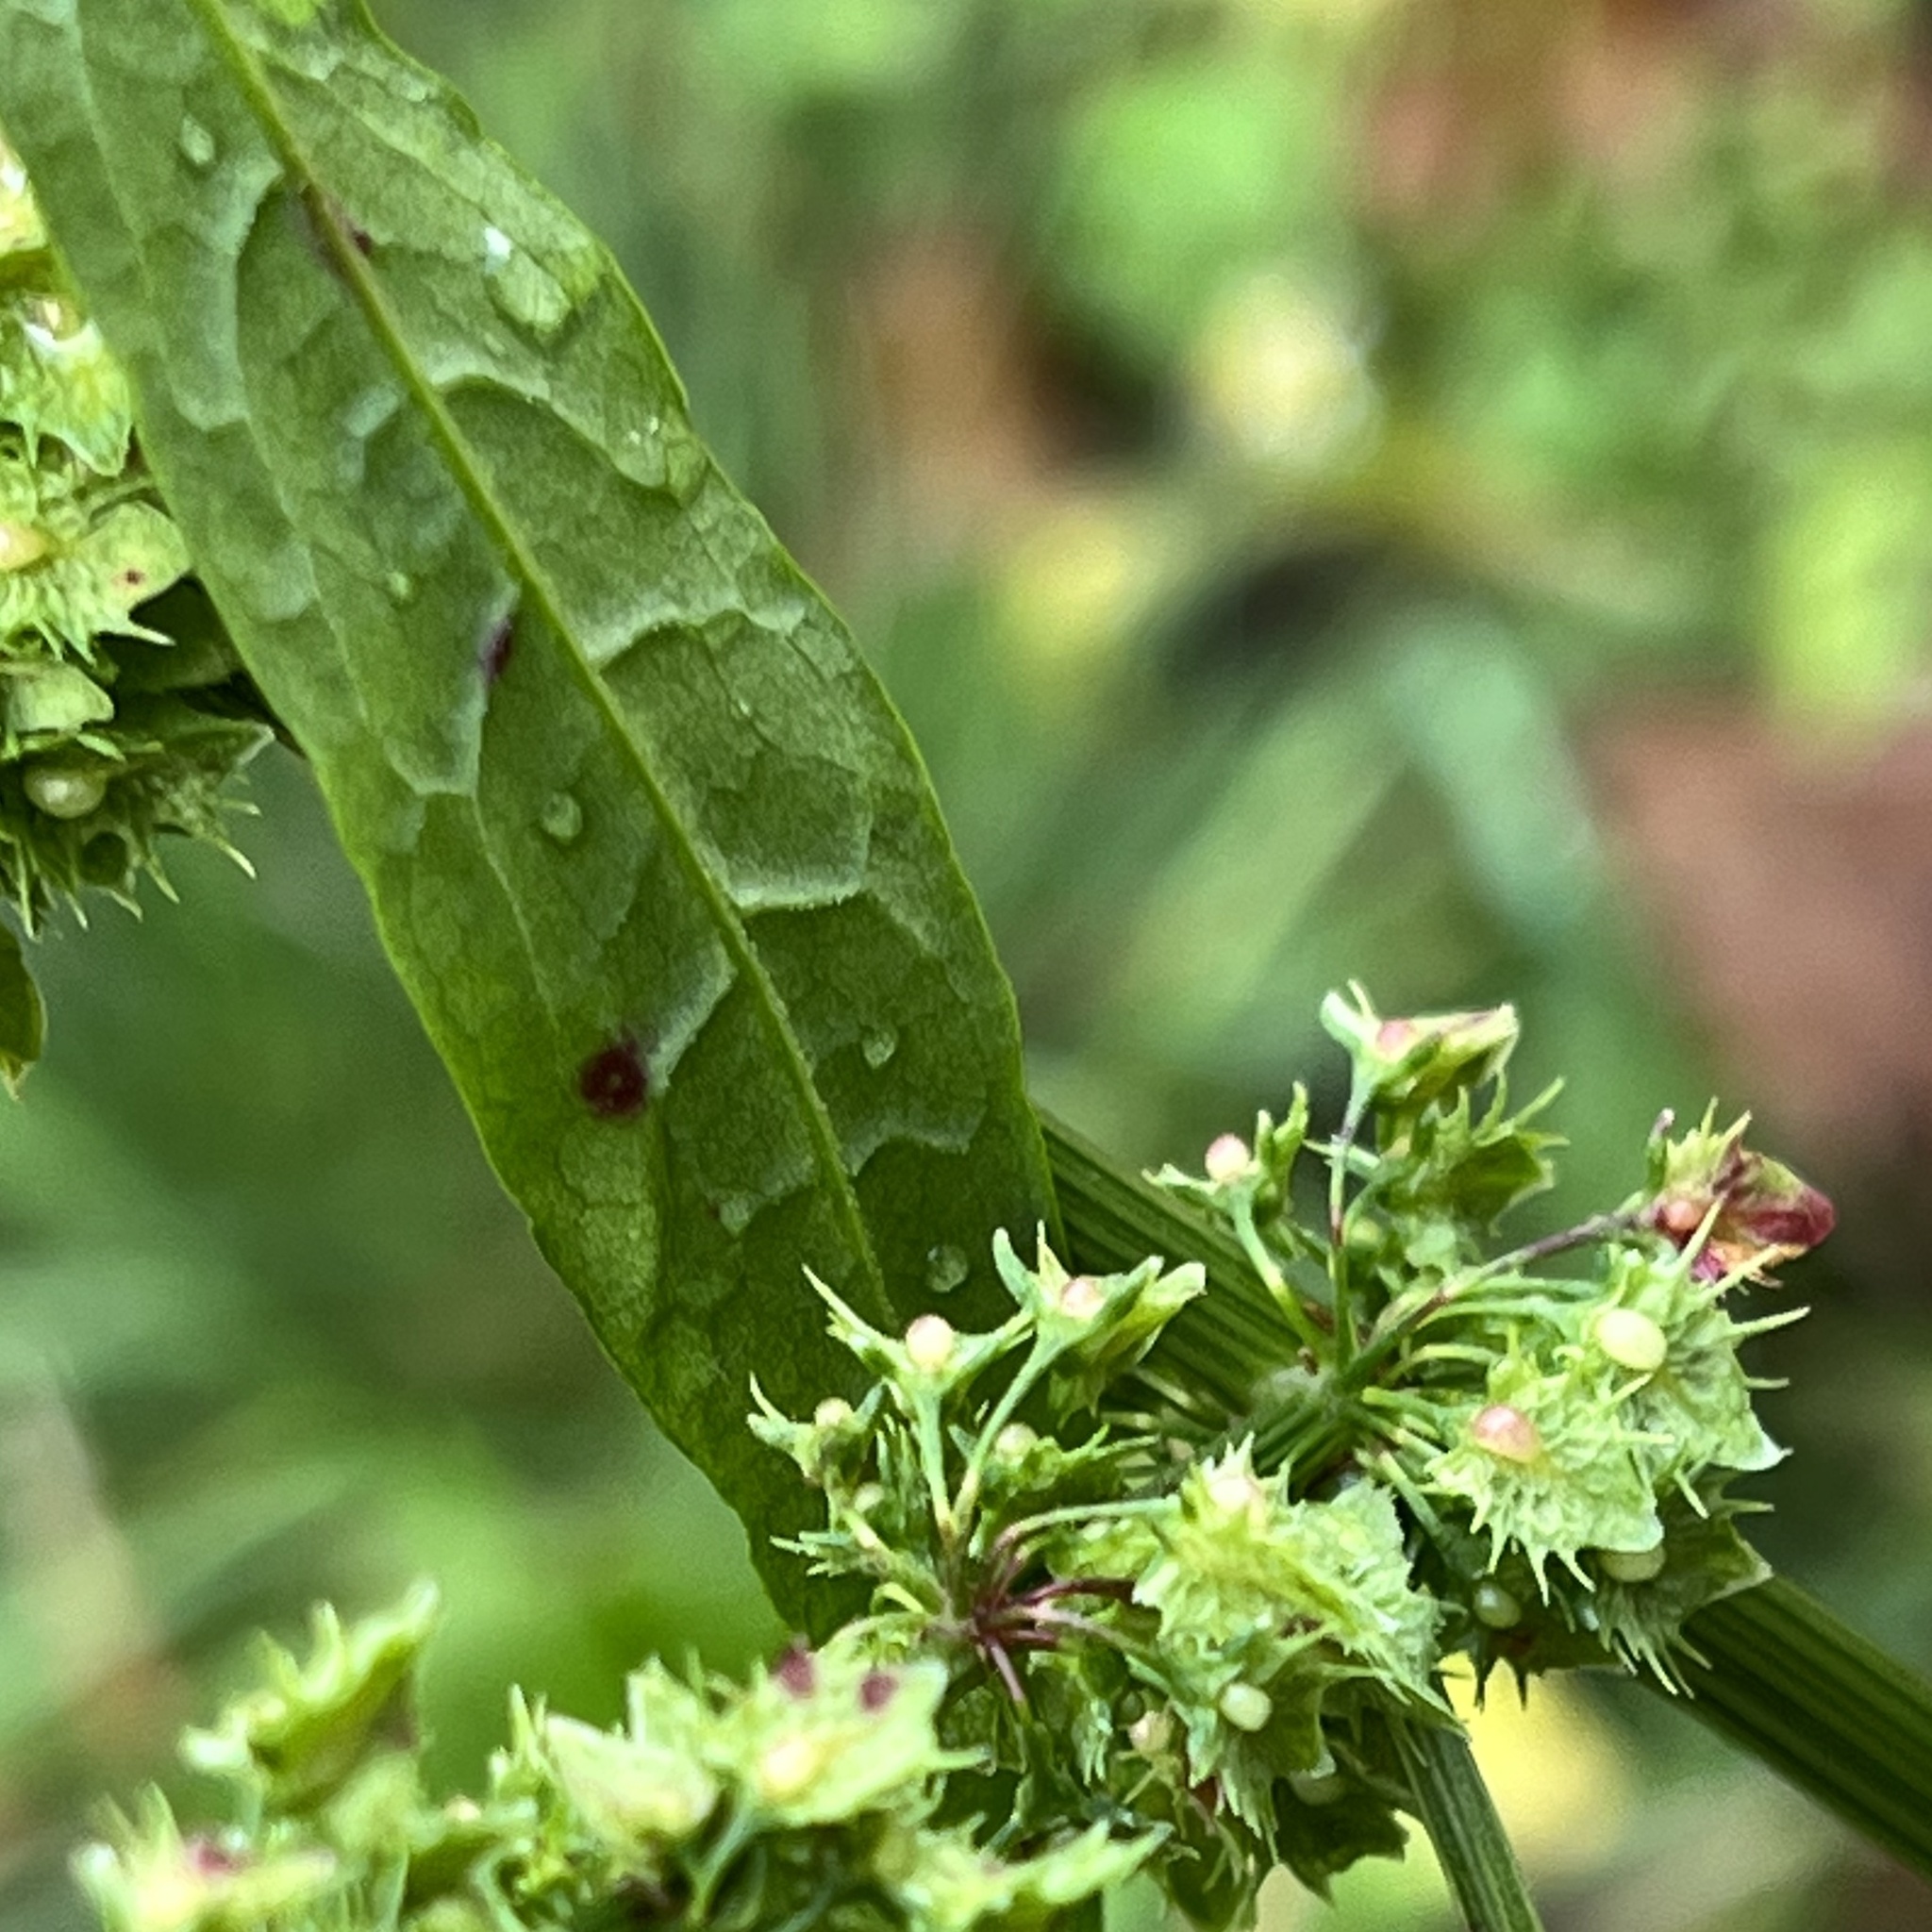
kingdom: Plantae
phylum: Tracheophyta
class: Magnoliopsida
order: Caryophyllales
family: Polygonaceae
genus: Rumex
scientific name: Rumex obtusifolius
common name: Bitter dock
